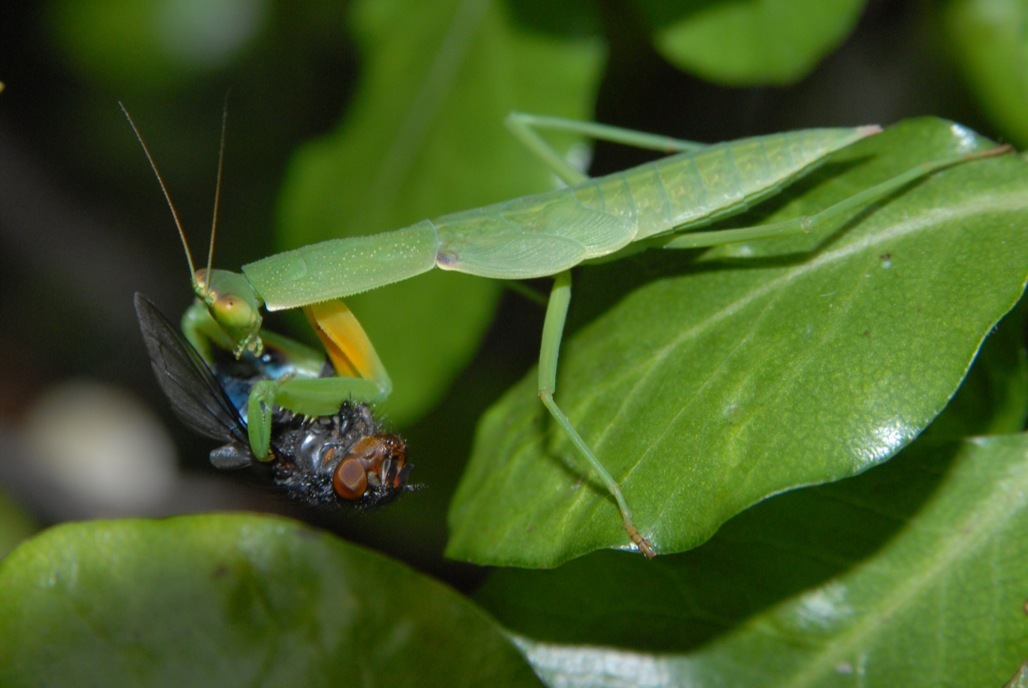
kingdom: Animalia
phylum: Arthropoda
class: Insecta
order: Mantodea
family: Mantidae
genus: Orthodera
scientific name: Orthodera novaezealandiae
